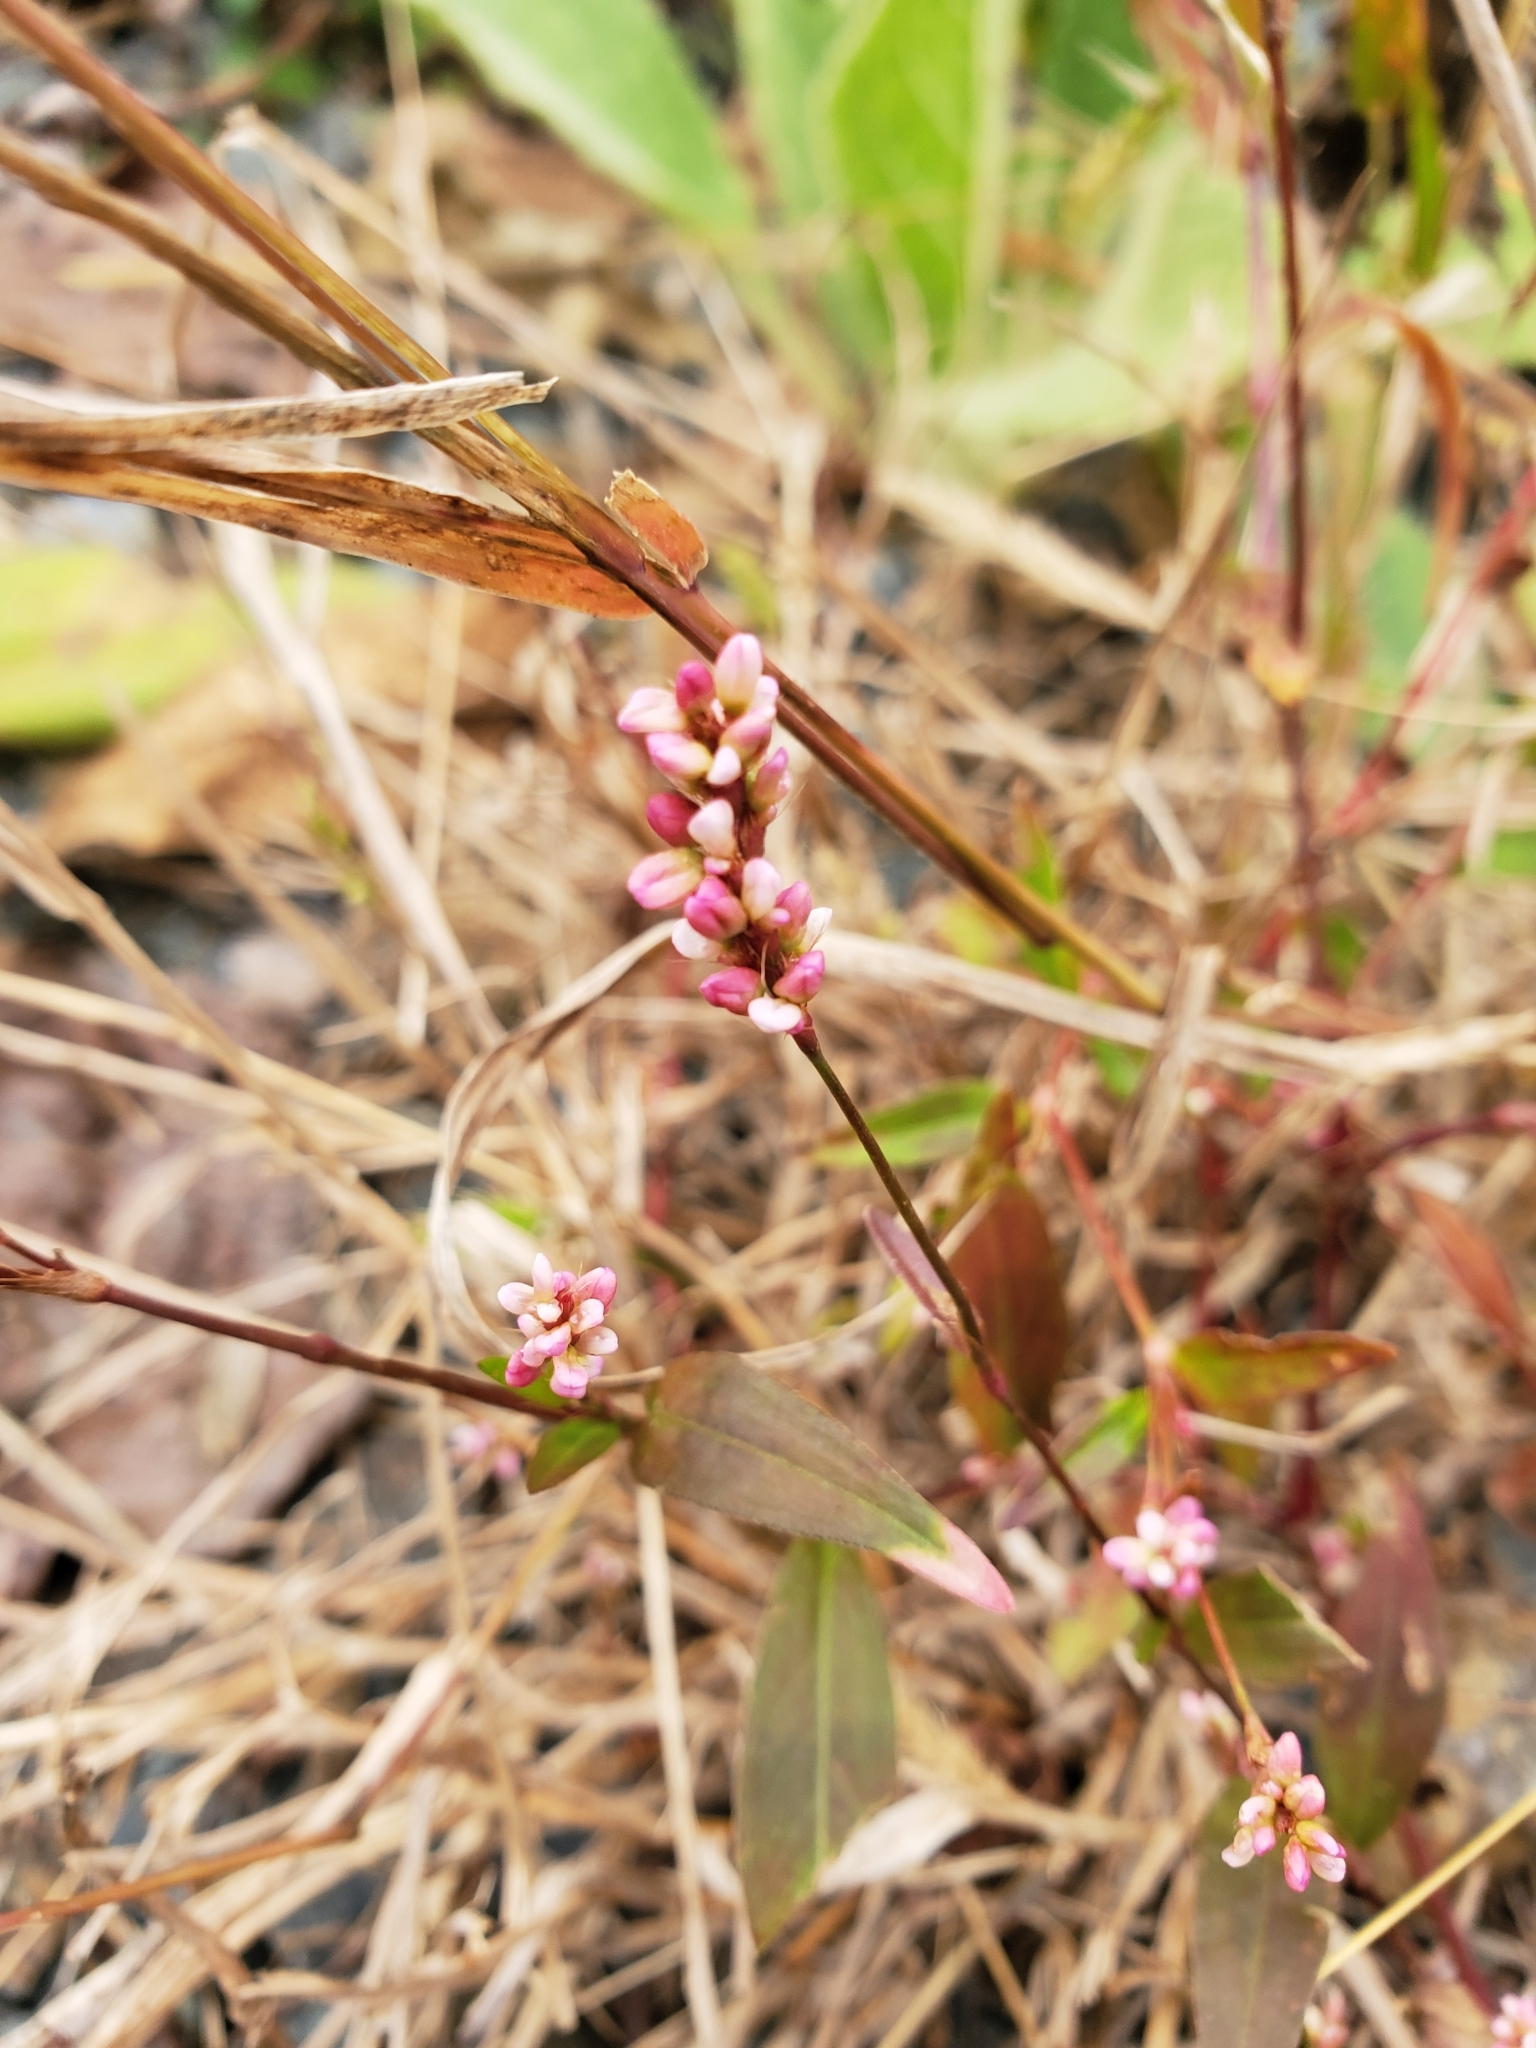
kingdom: Plantae
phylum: Tracheophyta
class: Magnoliopsida
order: Caryophyllales
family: Polygonaceae
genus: Persicaria
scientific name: Persicaria longiseta
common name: Bristly lady's-thumb
